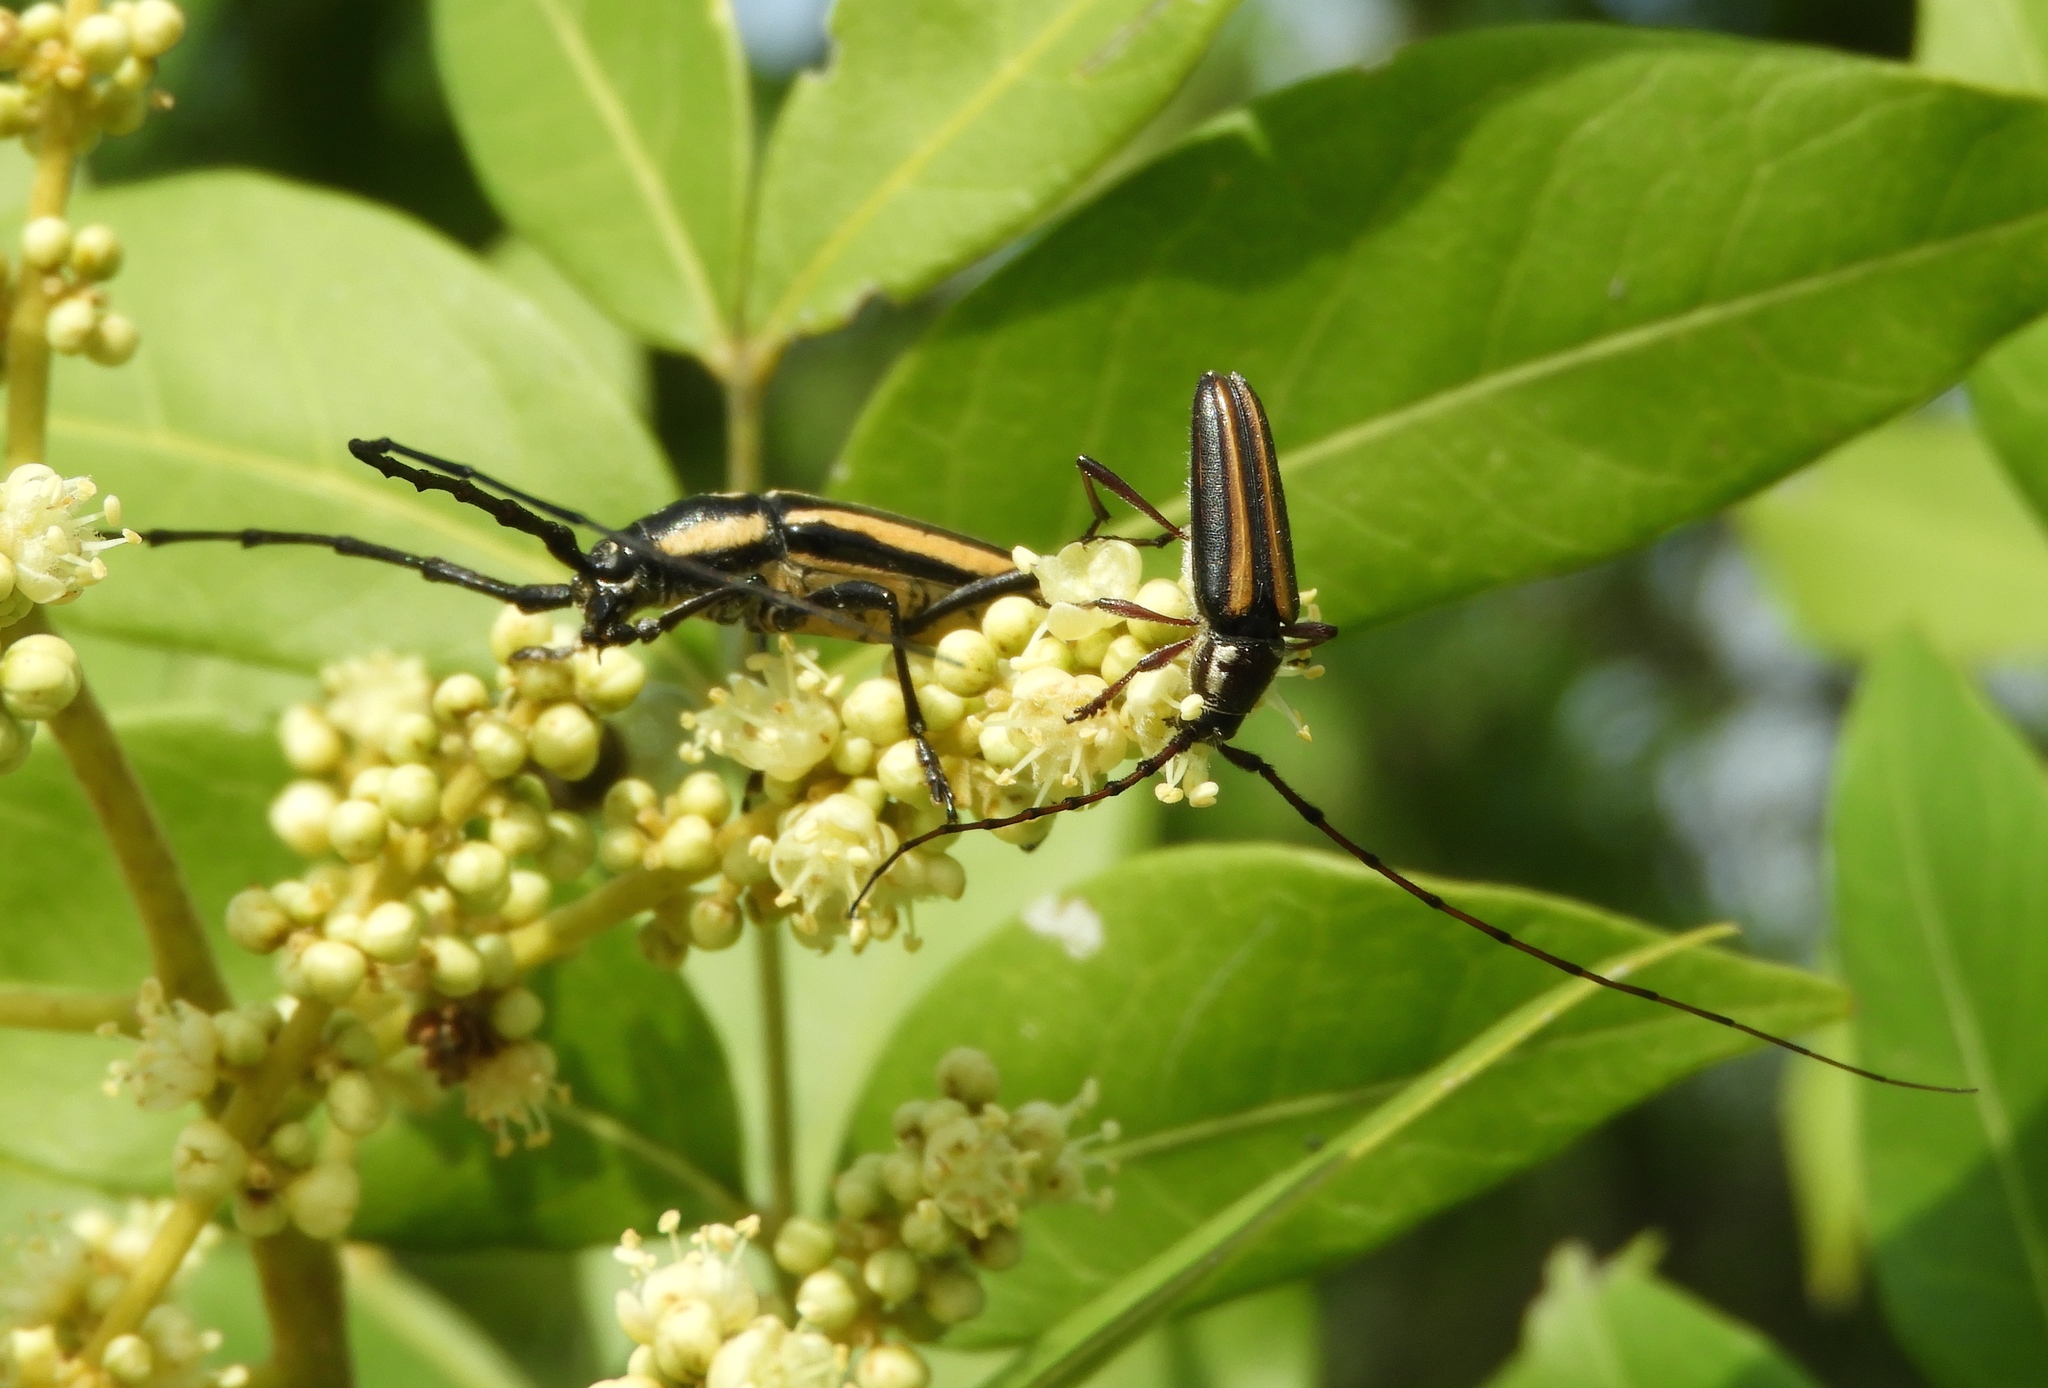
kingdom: Animalia
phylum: Arthropoda
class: Insecta
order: Coleoptera
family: Cerambycidae
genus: Sphaenothecus
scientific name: Sphaenothecus
